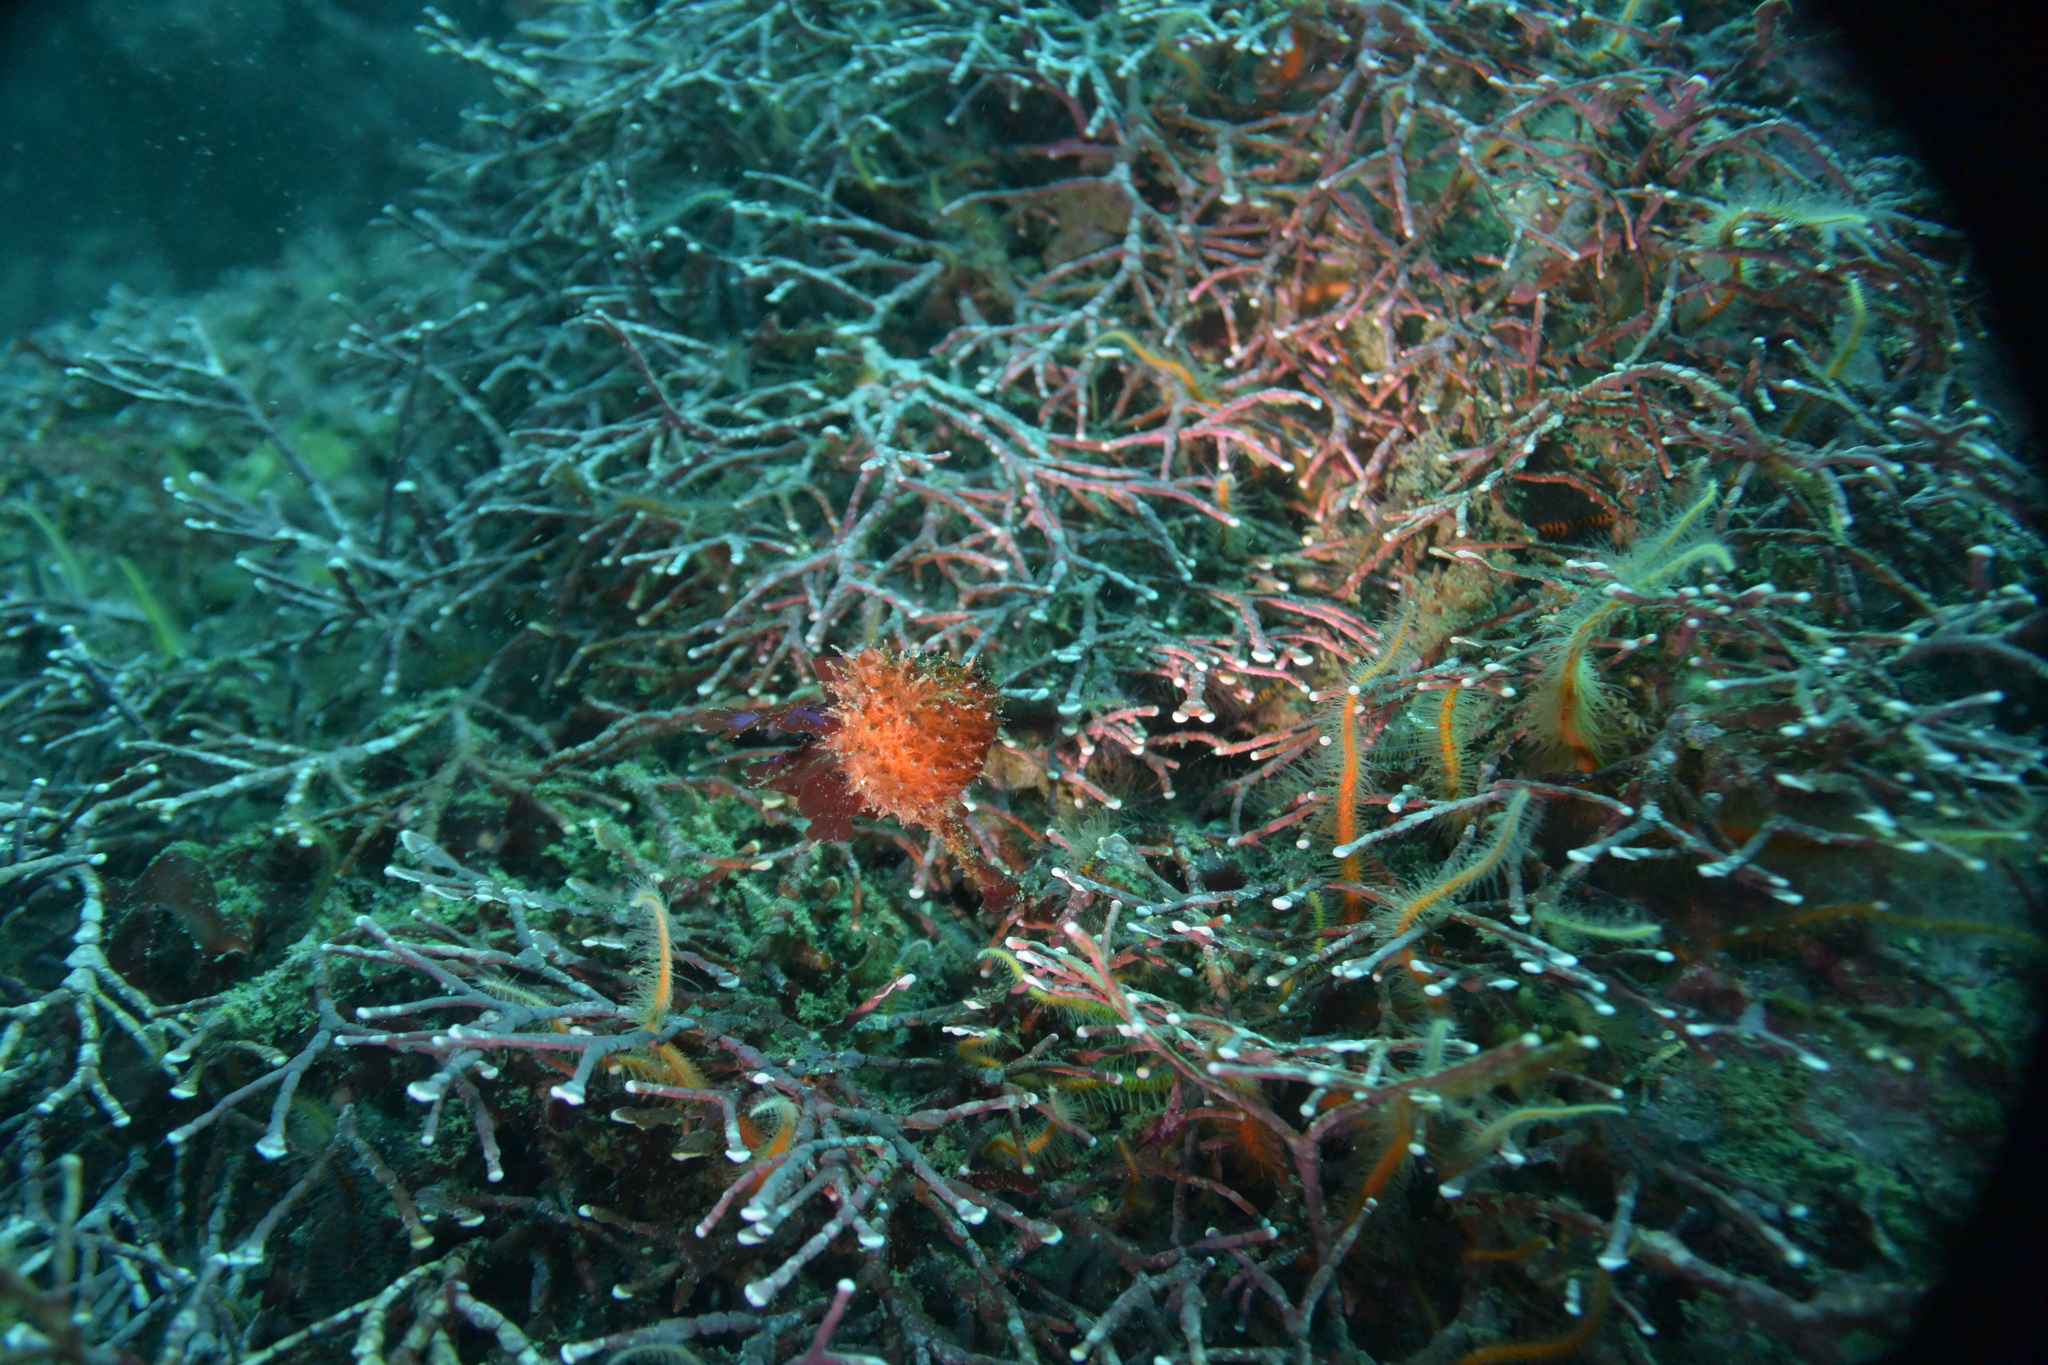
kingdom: Animalia
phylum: Chordata
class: Ascidiacea
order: Stolidobranchia
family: Pyuridae
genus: Boltenia
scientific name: Boltenia villosa
